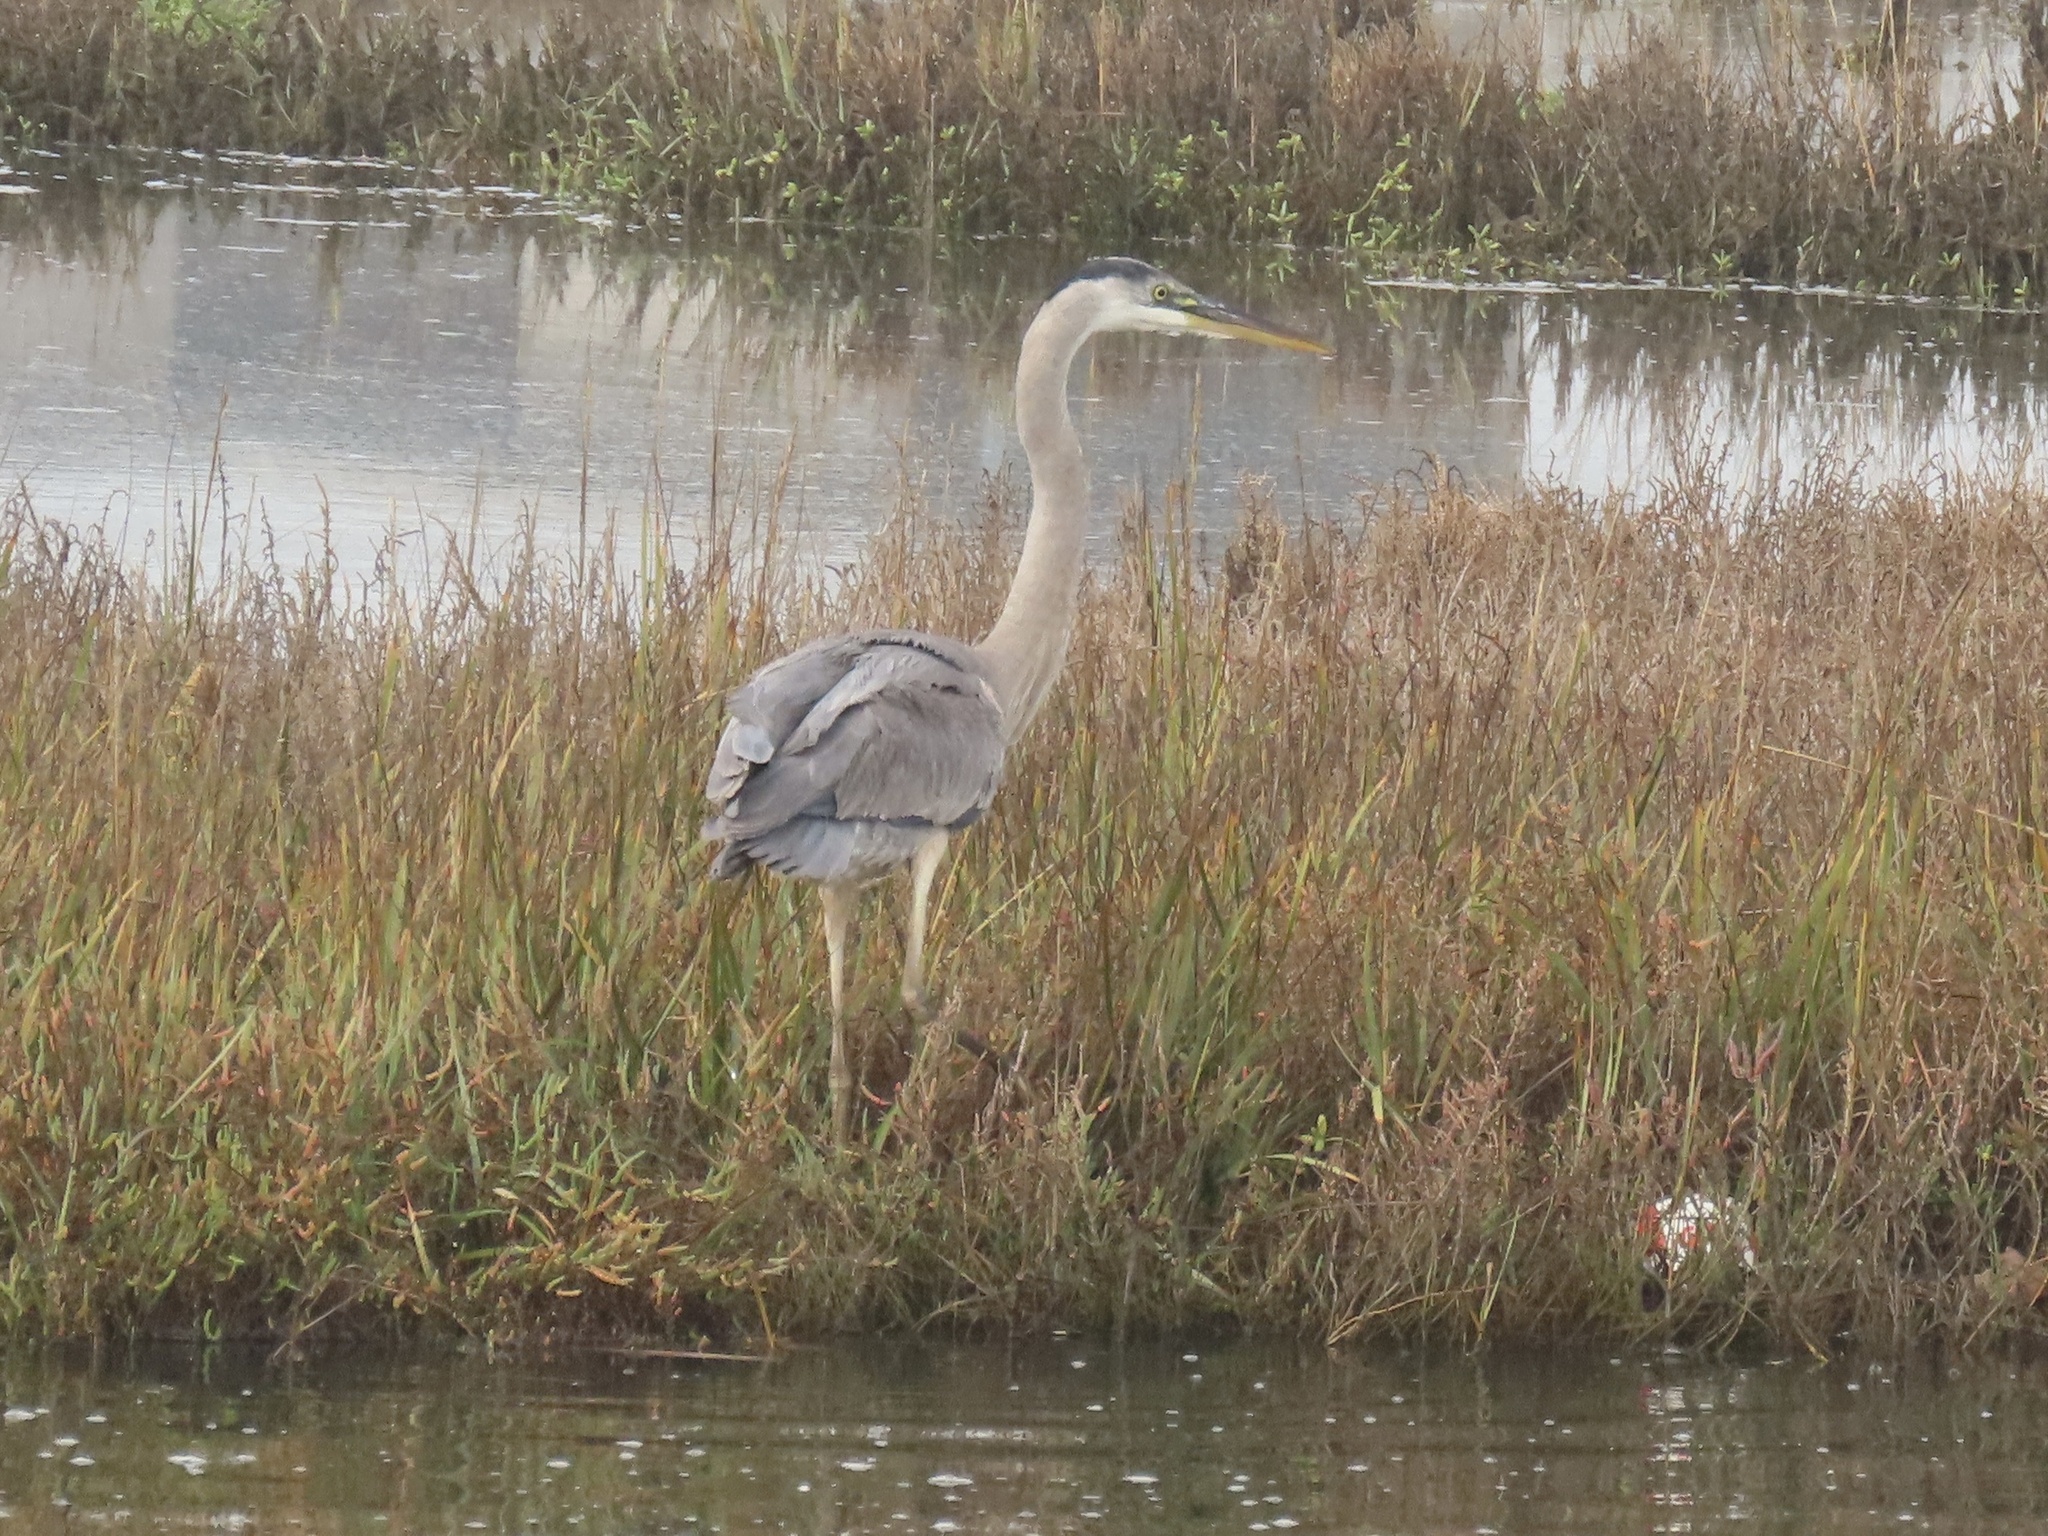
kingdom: Animalia
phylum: Chordata
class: Aves
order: Pelecaniformes
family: Ardeidae
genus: Ardea
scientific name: Ardea herodias
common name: Great blue heron
